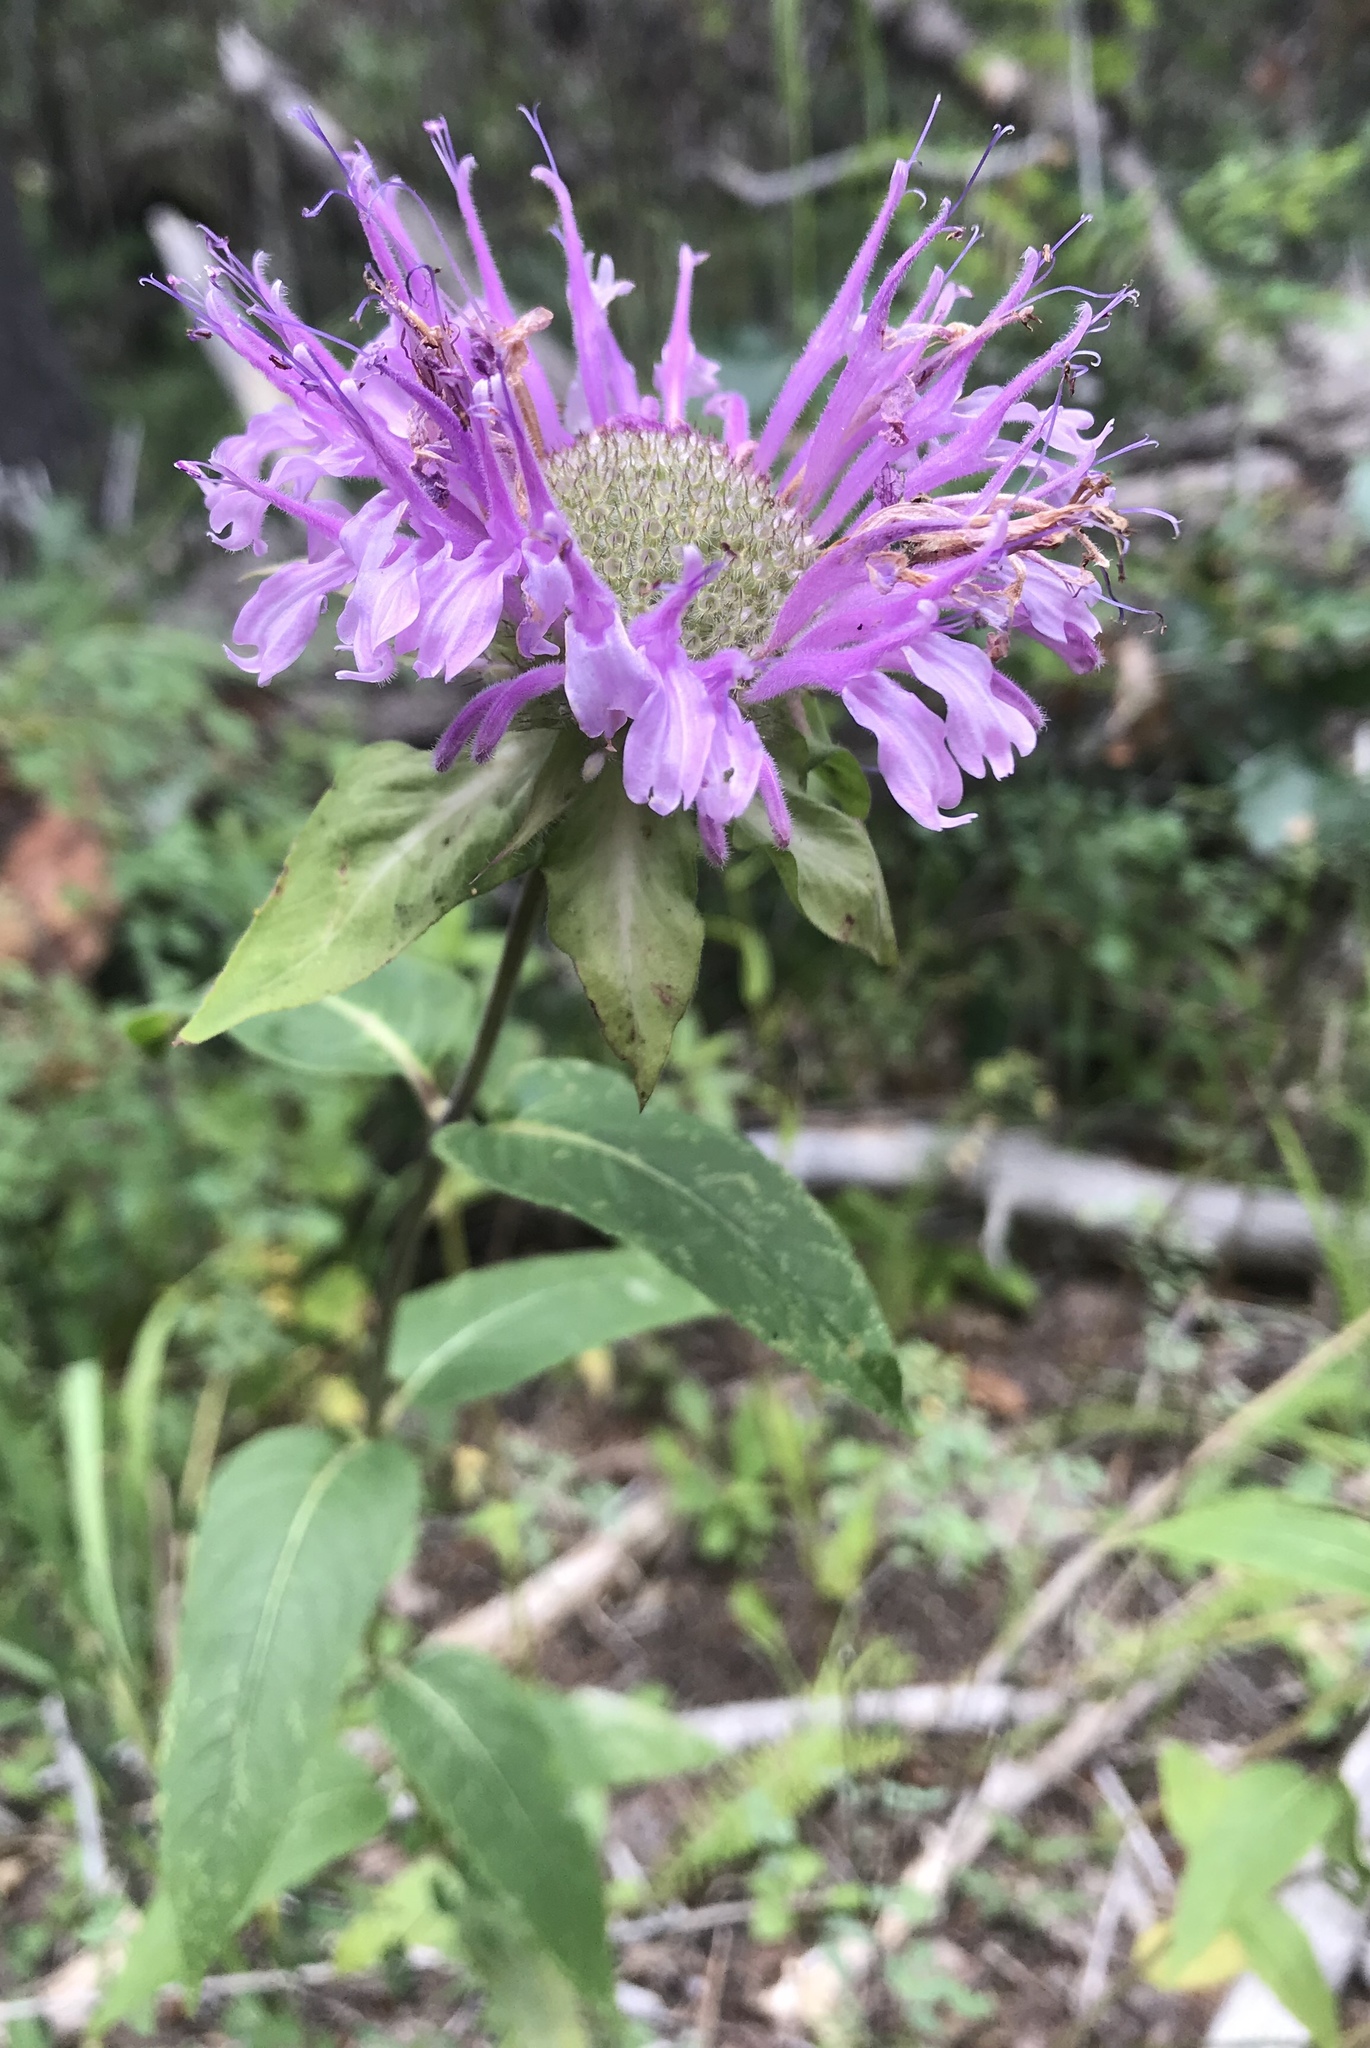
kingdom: Plantae
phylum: Tracheophyta
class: Magnoliopsida
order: Lamiales
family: Lamiaceae
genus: Monarda
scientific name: Monarda fistulosa
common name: Purple beebalm
